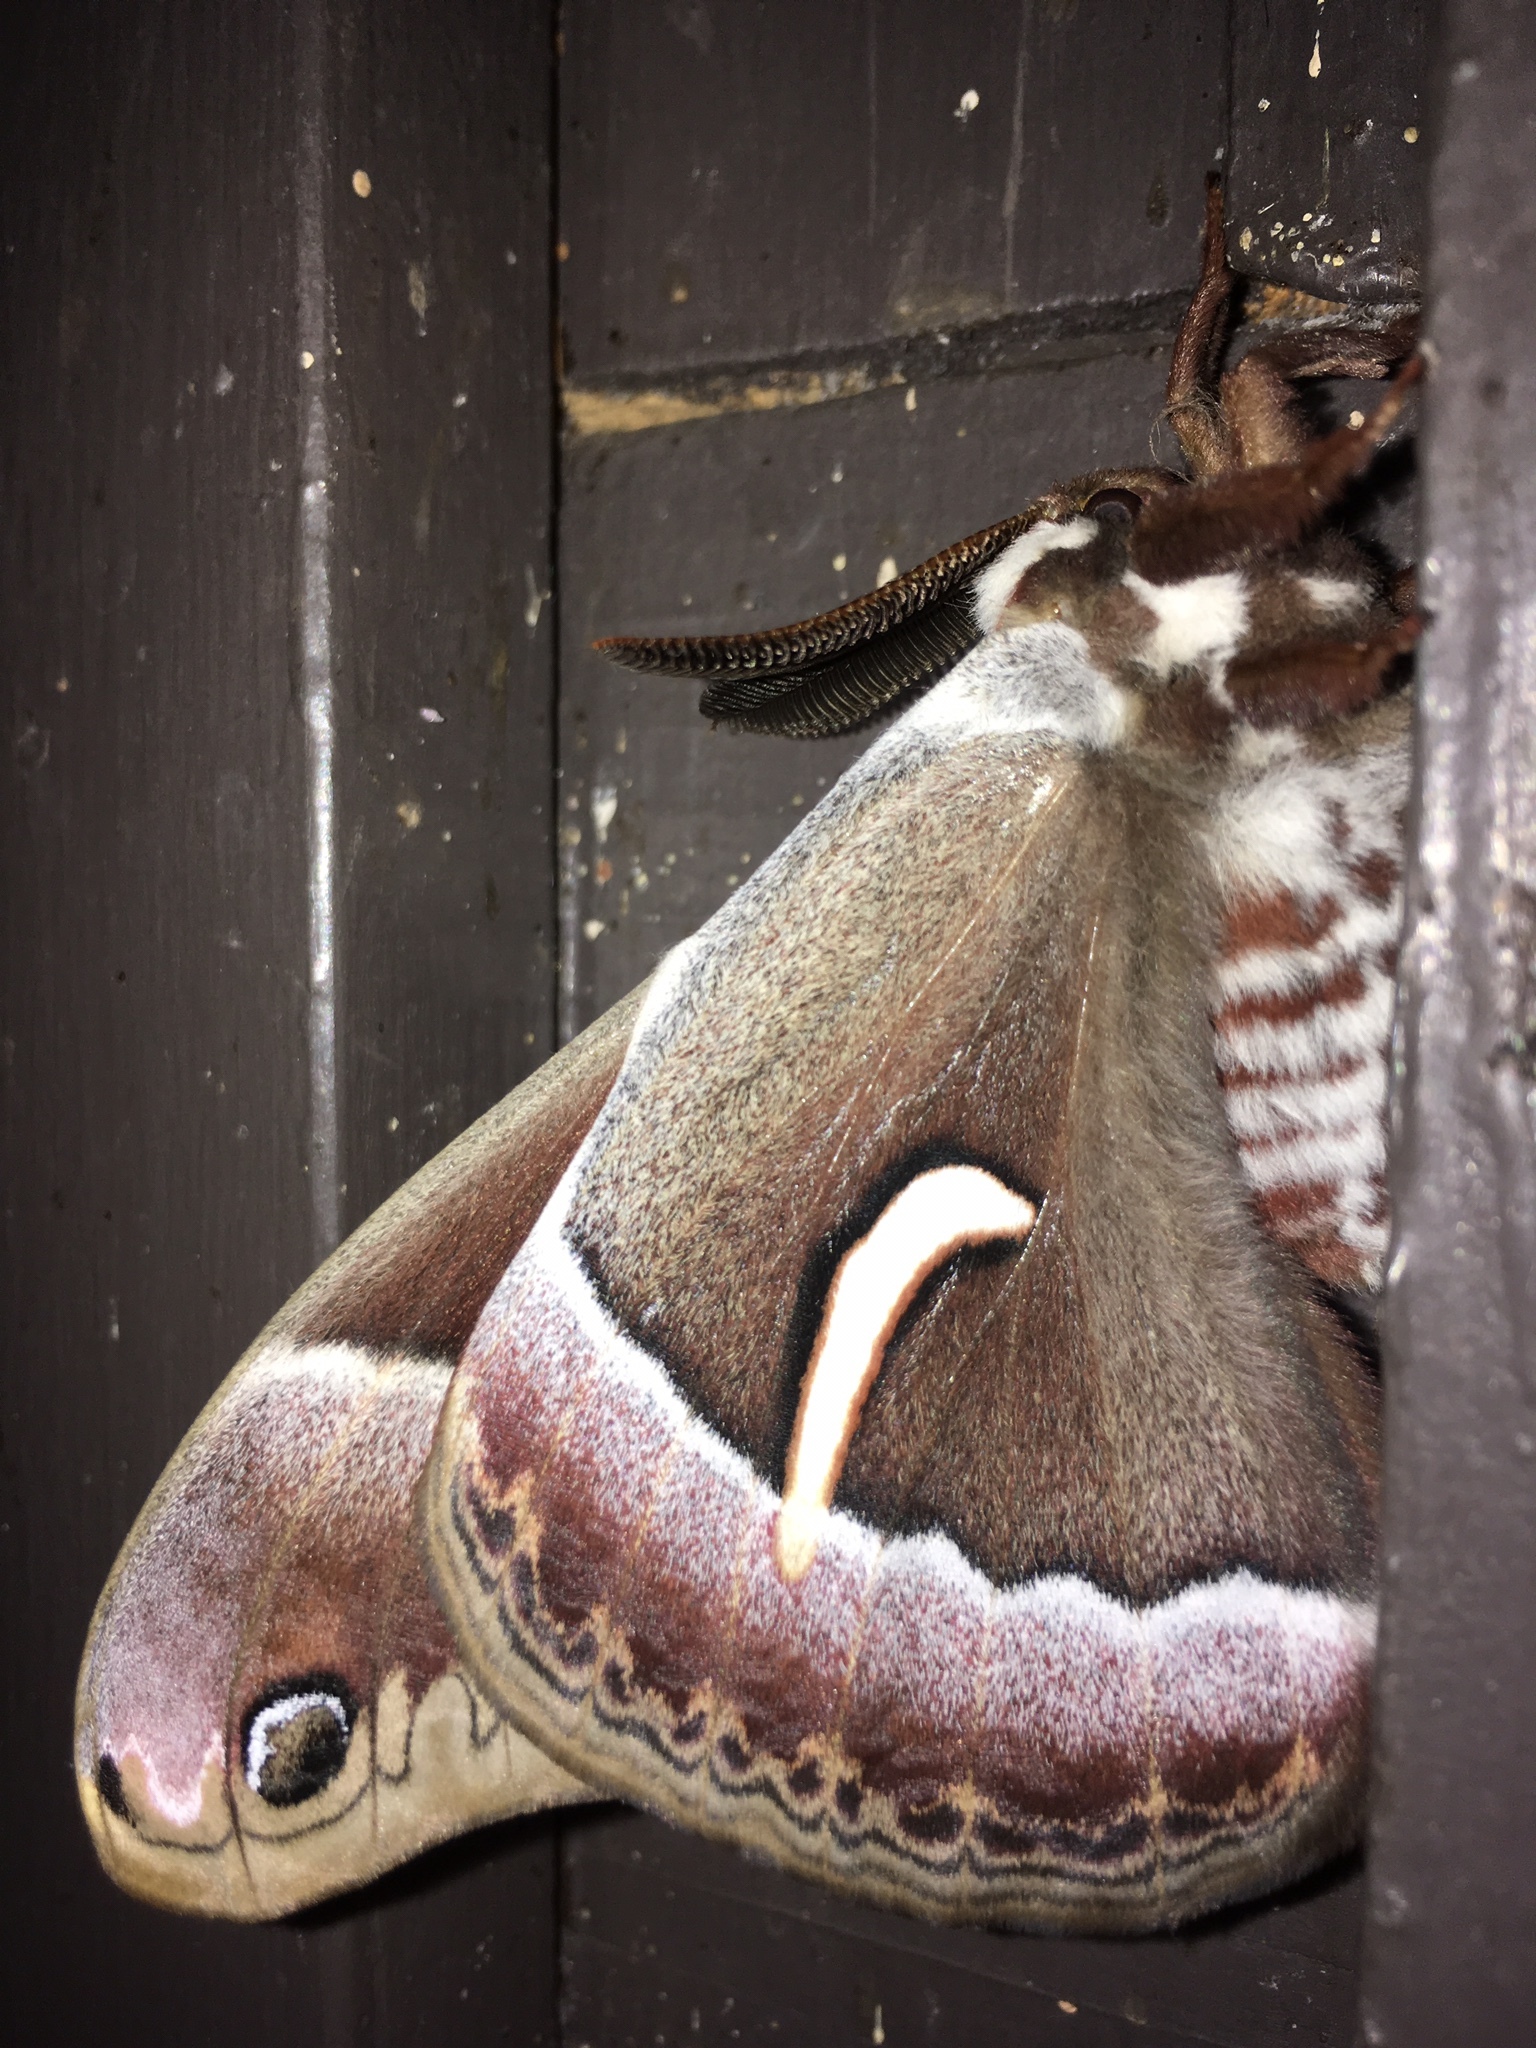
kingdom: Animalia
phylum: Arthropoda
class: Insecta
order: Lepidoptera
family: Saturniidae
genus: Hyalophora
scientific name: Hyalophora euryalus
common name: Ceanothus silkmoth
